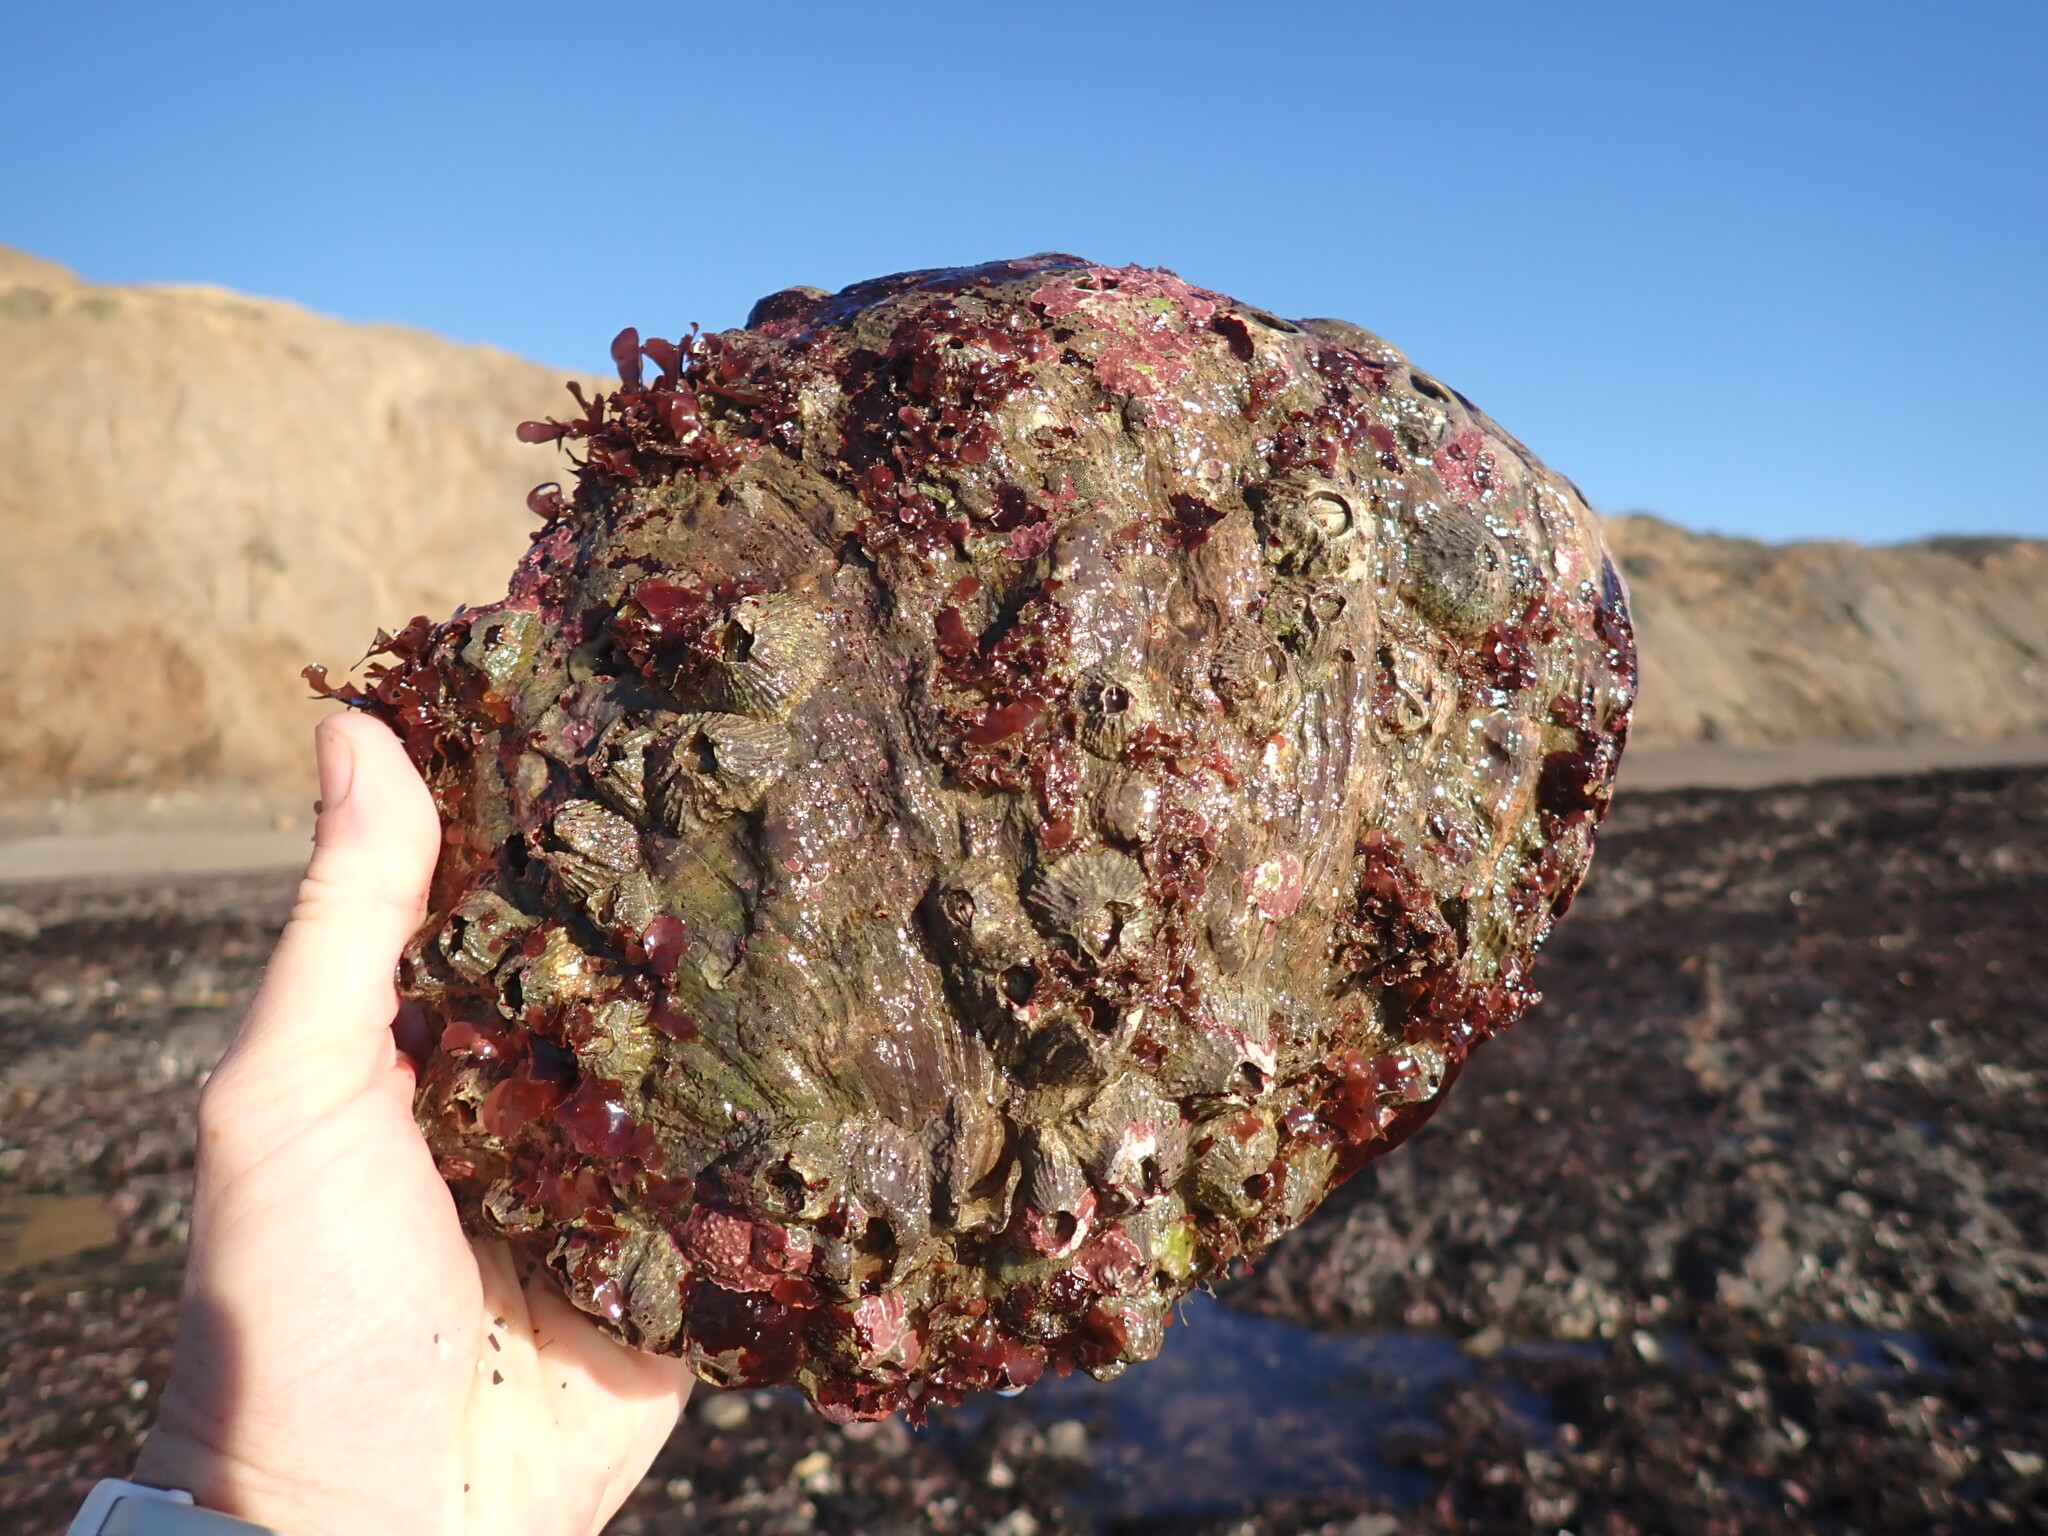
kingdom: Animalia
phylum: Mollusca
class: Gastropoda
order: Lepetellida
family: Haliotidae
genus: Haliotis
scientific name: Haliotis rufescens
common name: Red abalone
